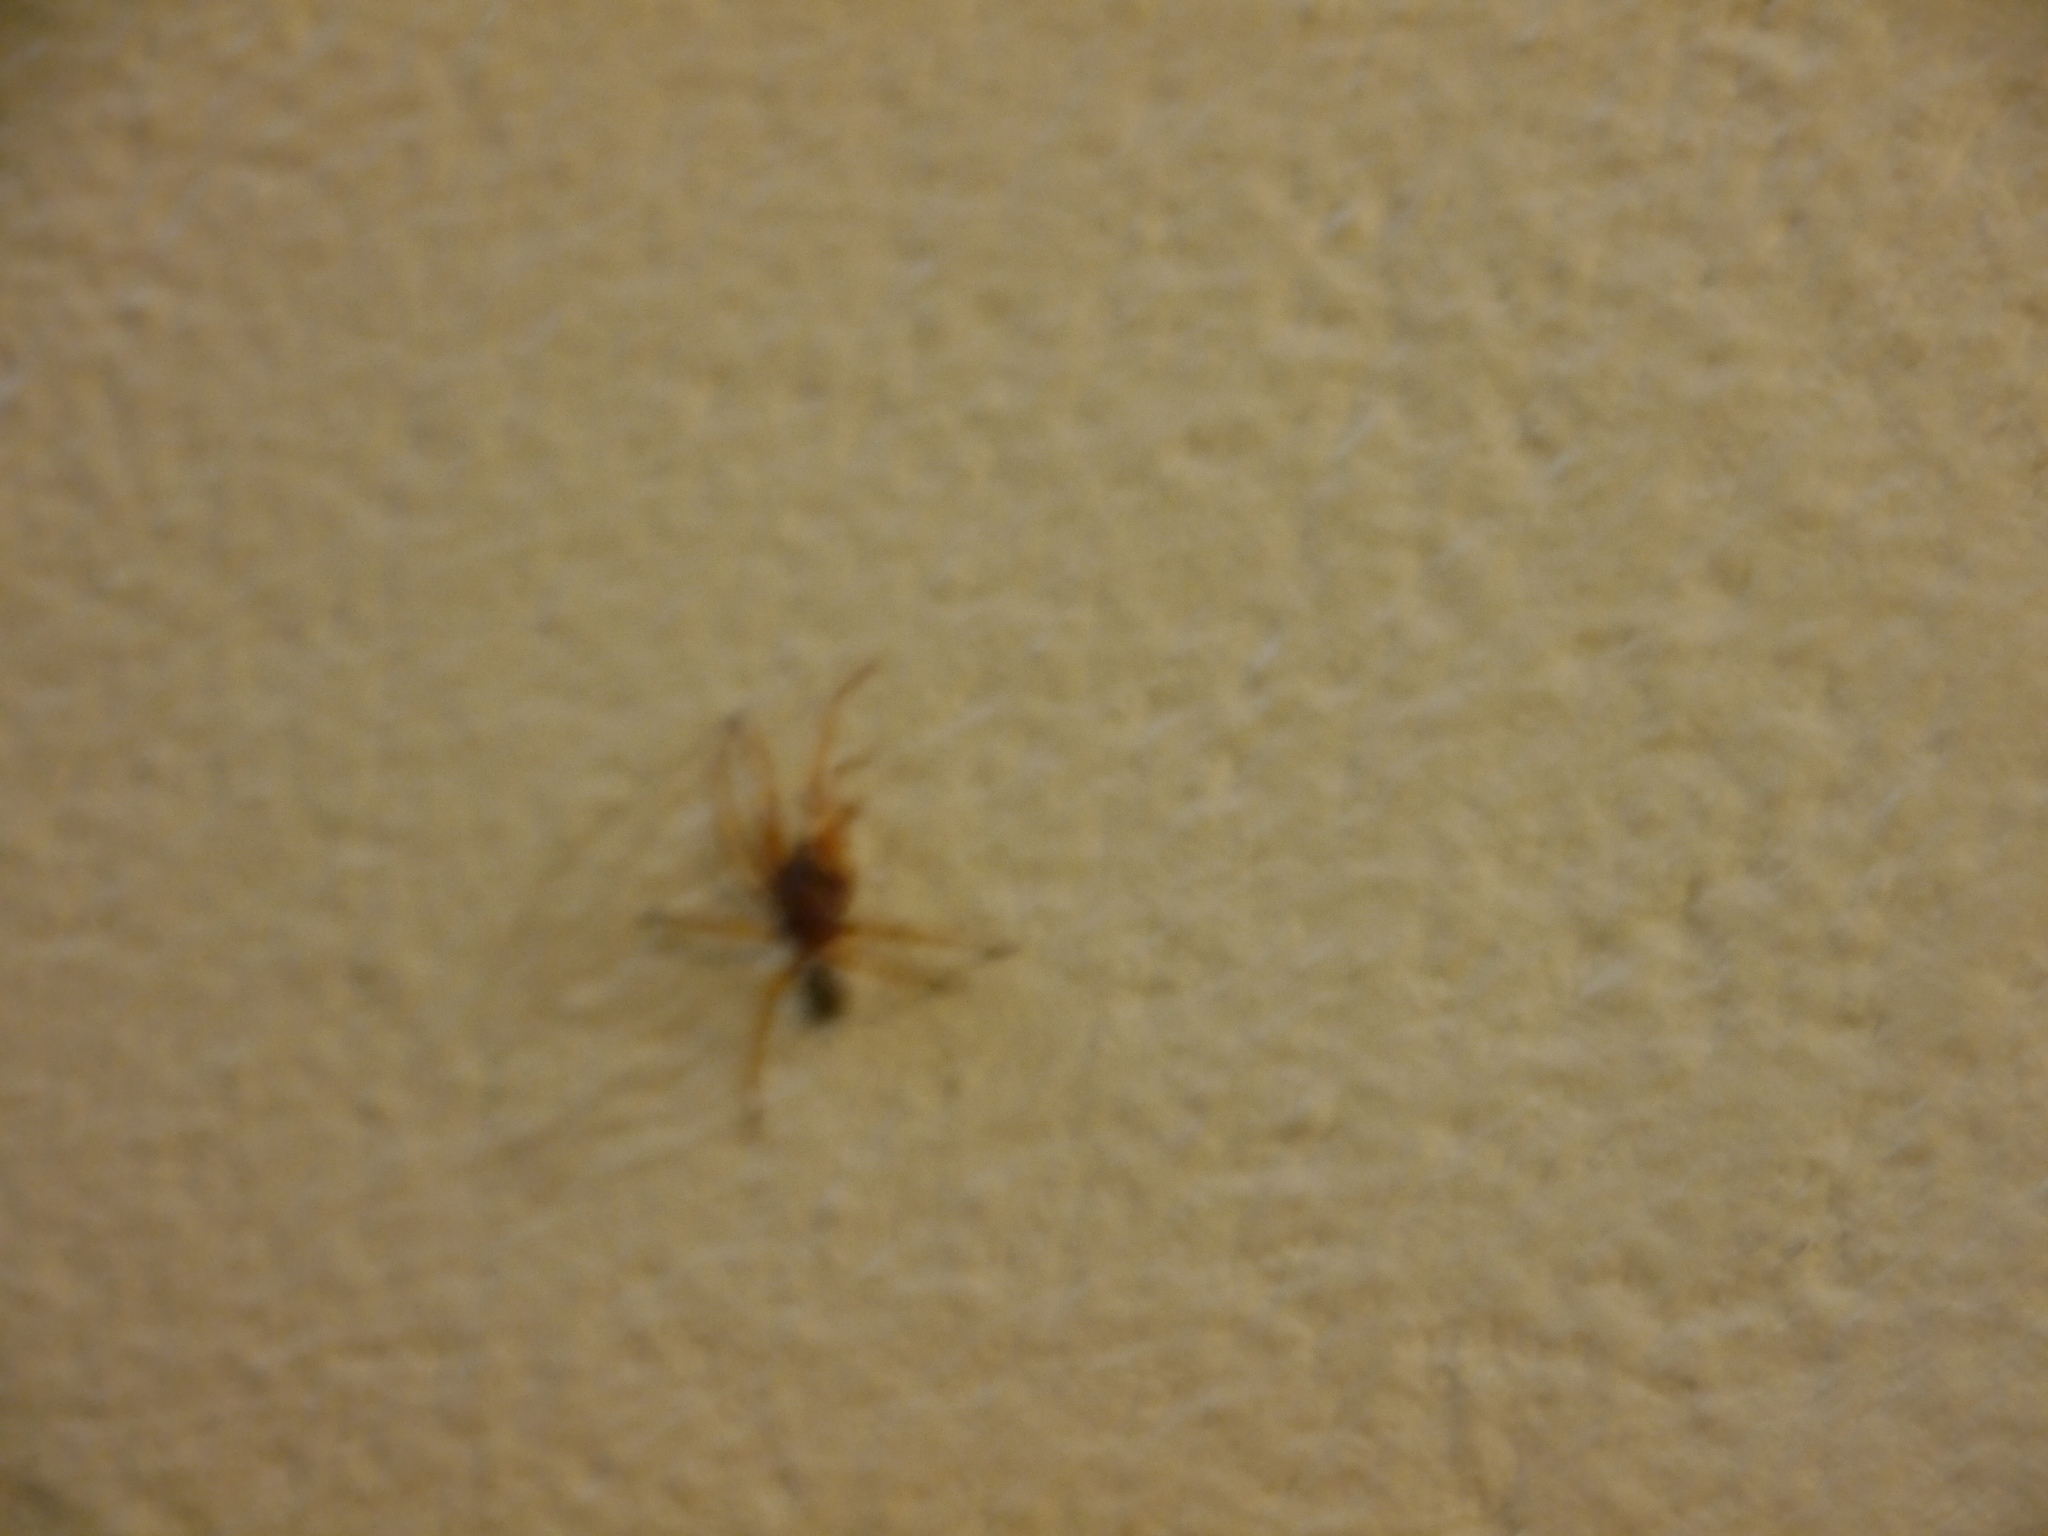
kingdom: Animalia
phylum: Arthropoda
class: Arachnida
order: Araneae
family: Dysderidae
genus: Dysdera
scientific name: Dysdera crocata
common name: Woodlouse spider
